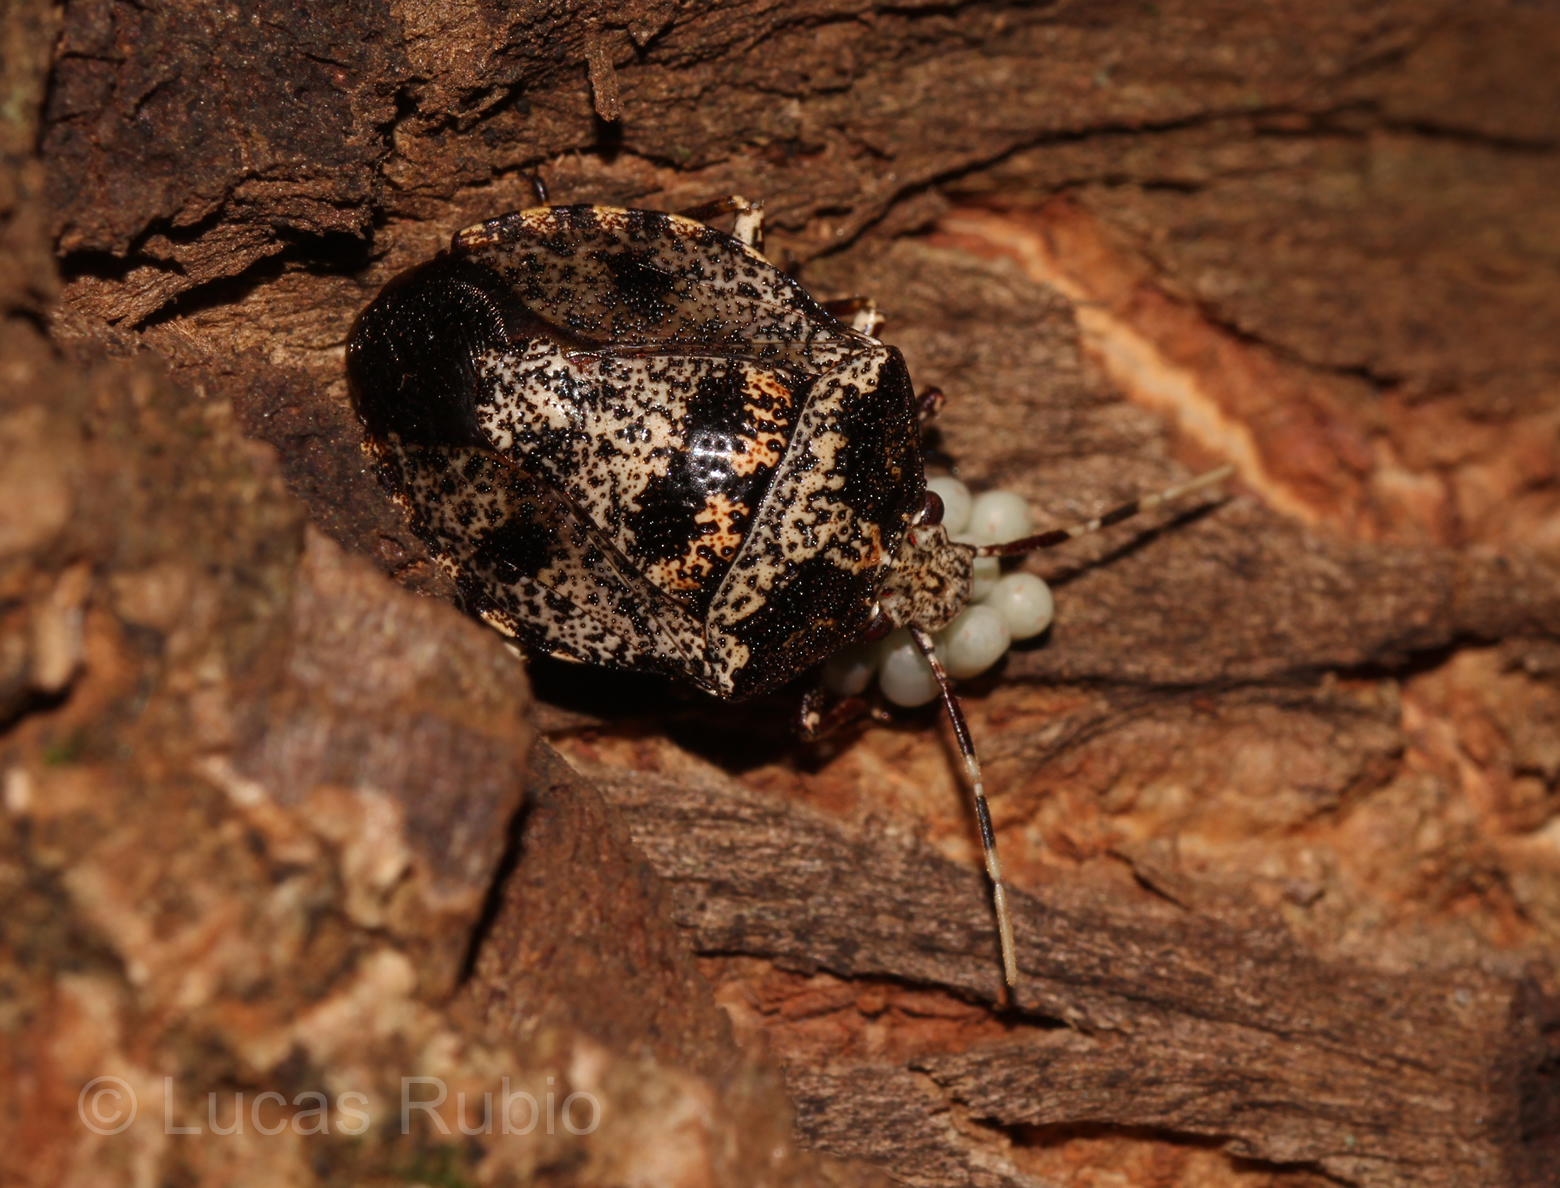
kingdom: Animalia
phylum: Arthropoda
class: Insecta
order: Hemiptera
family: Pentatomidae
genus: Antiteuchus
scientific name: Antiteuchus mixtus
